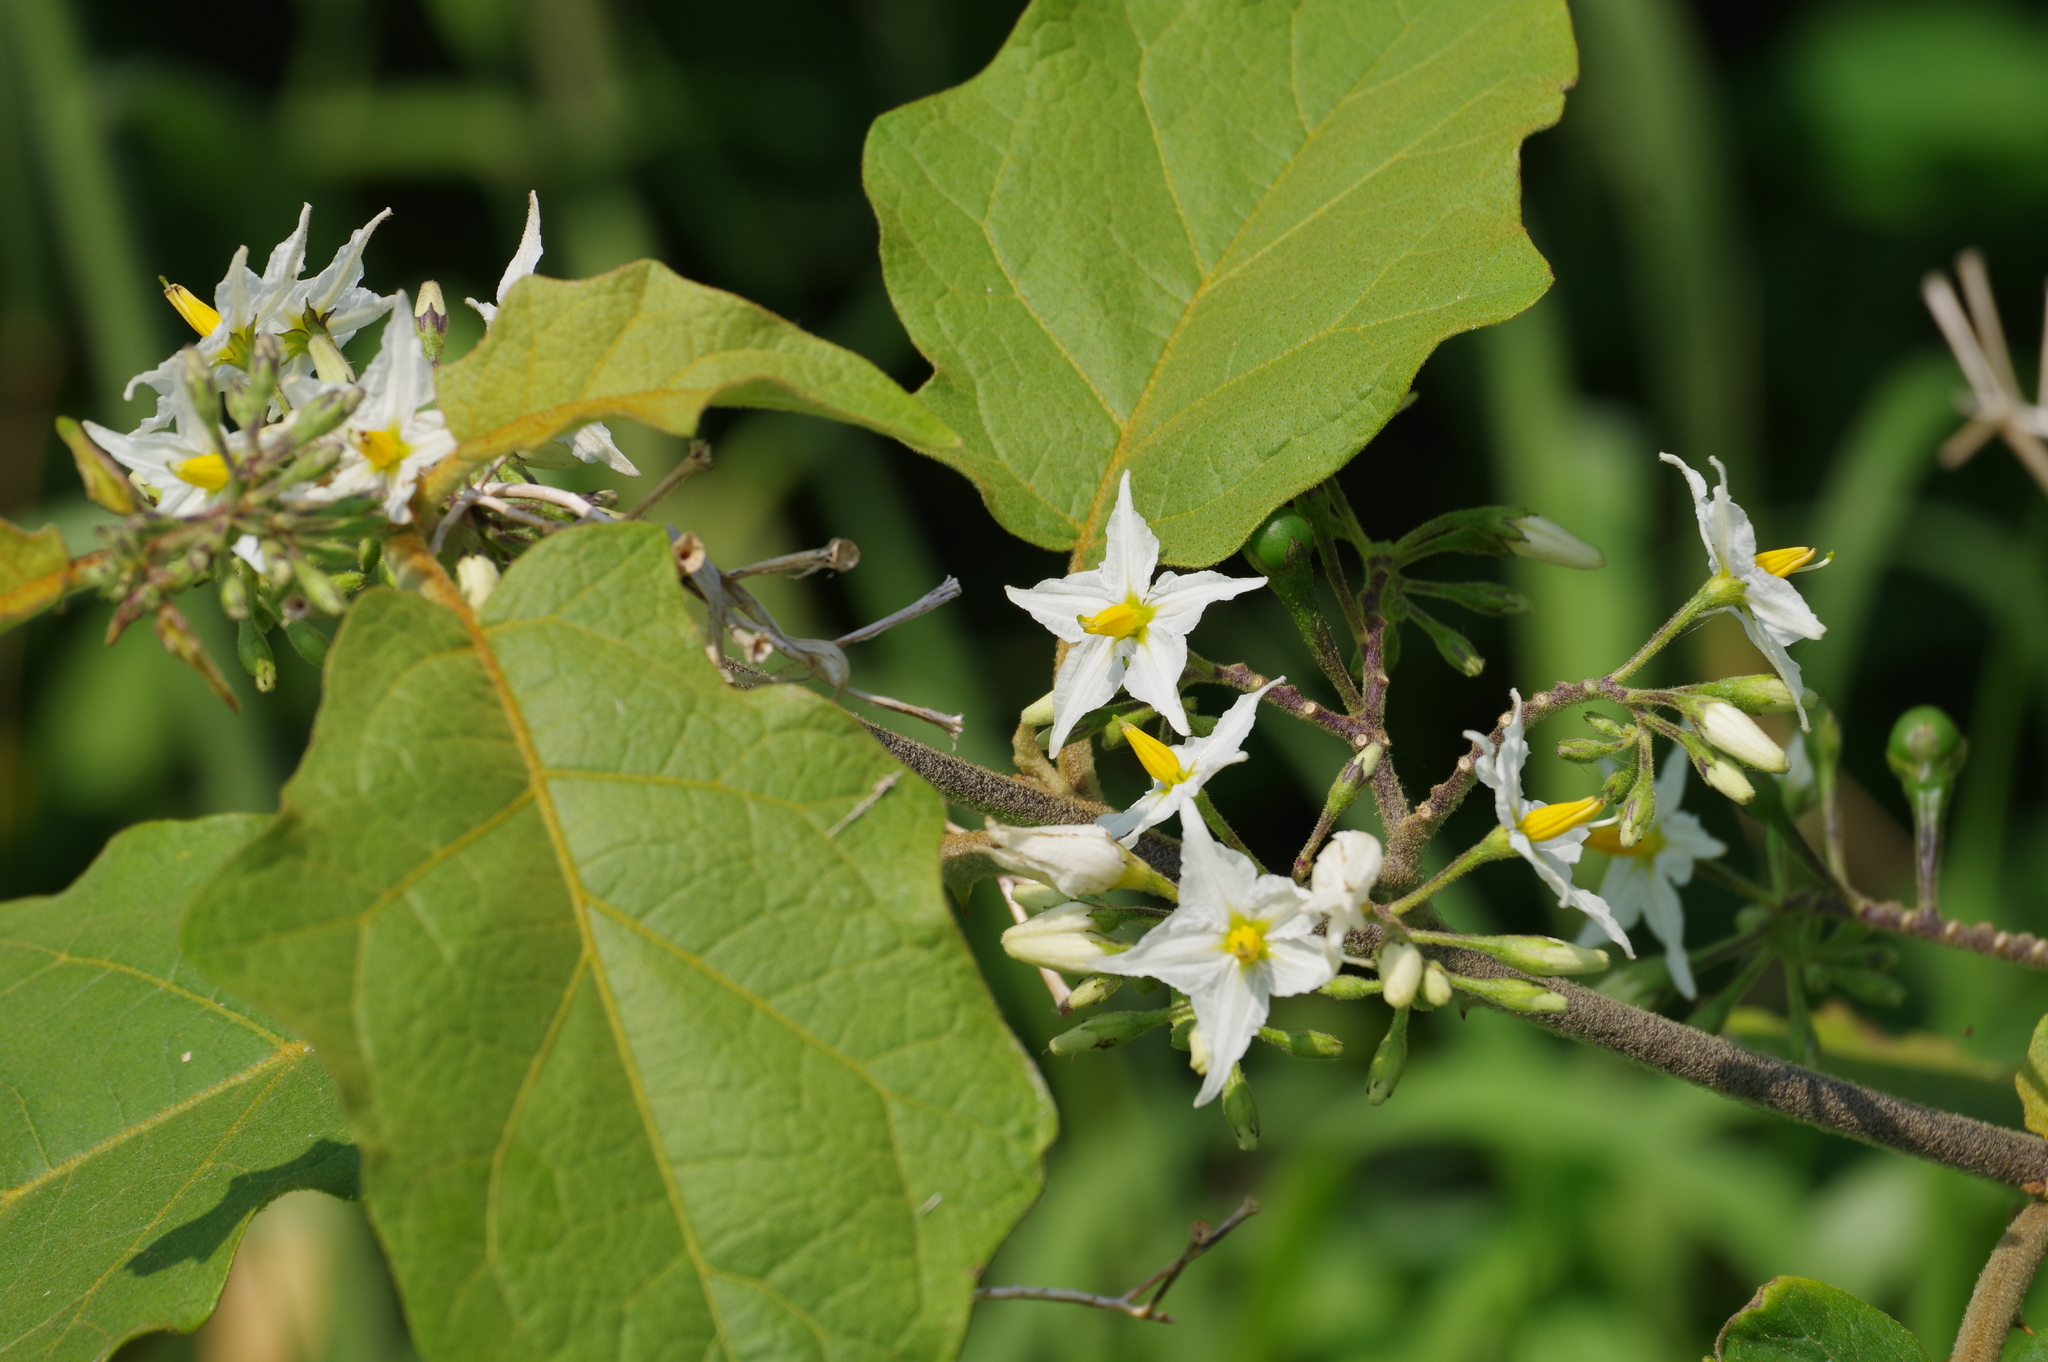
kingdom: Plantae
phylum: Tracheophyta
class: Magnoliopsida
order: Solanales
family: Solanaceae
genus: Solanum
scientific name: Solanum torvum
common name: Turkey berry
